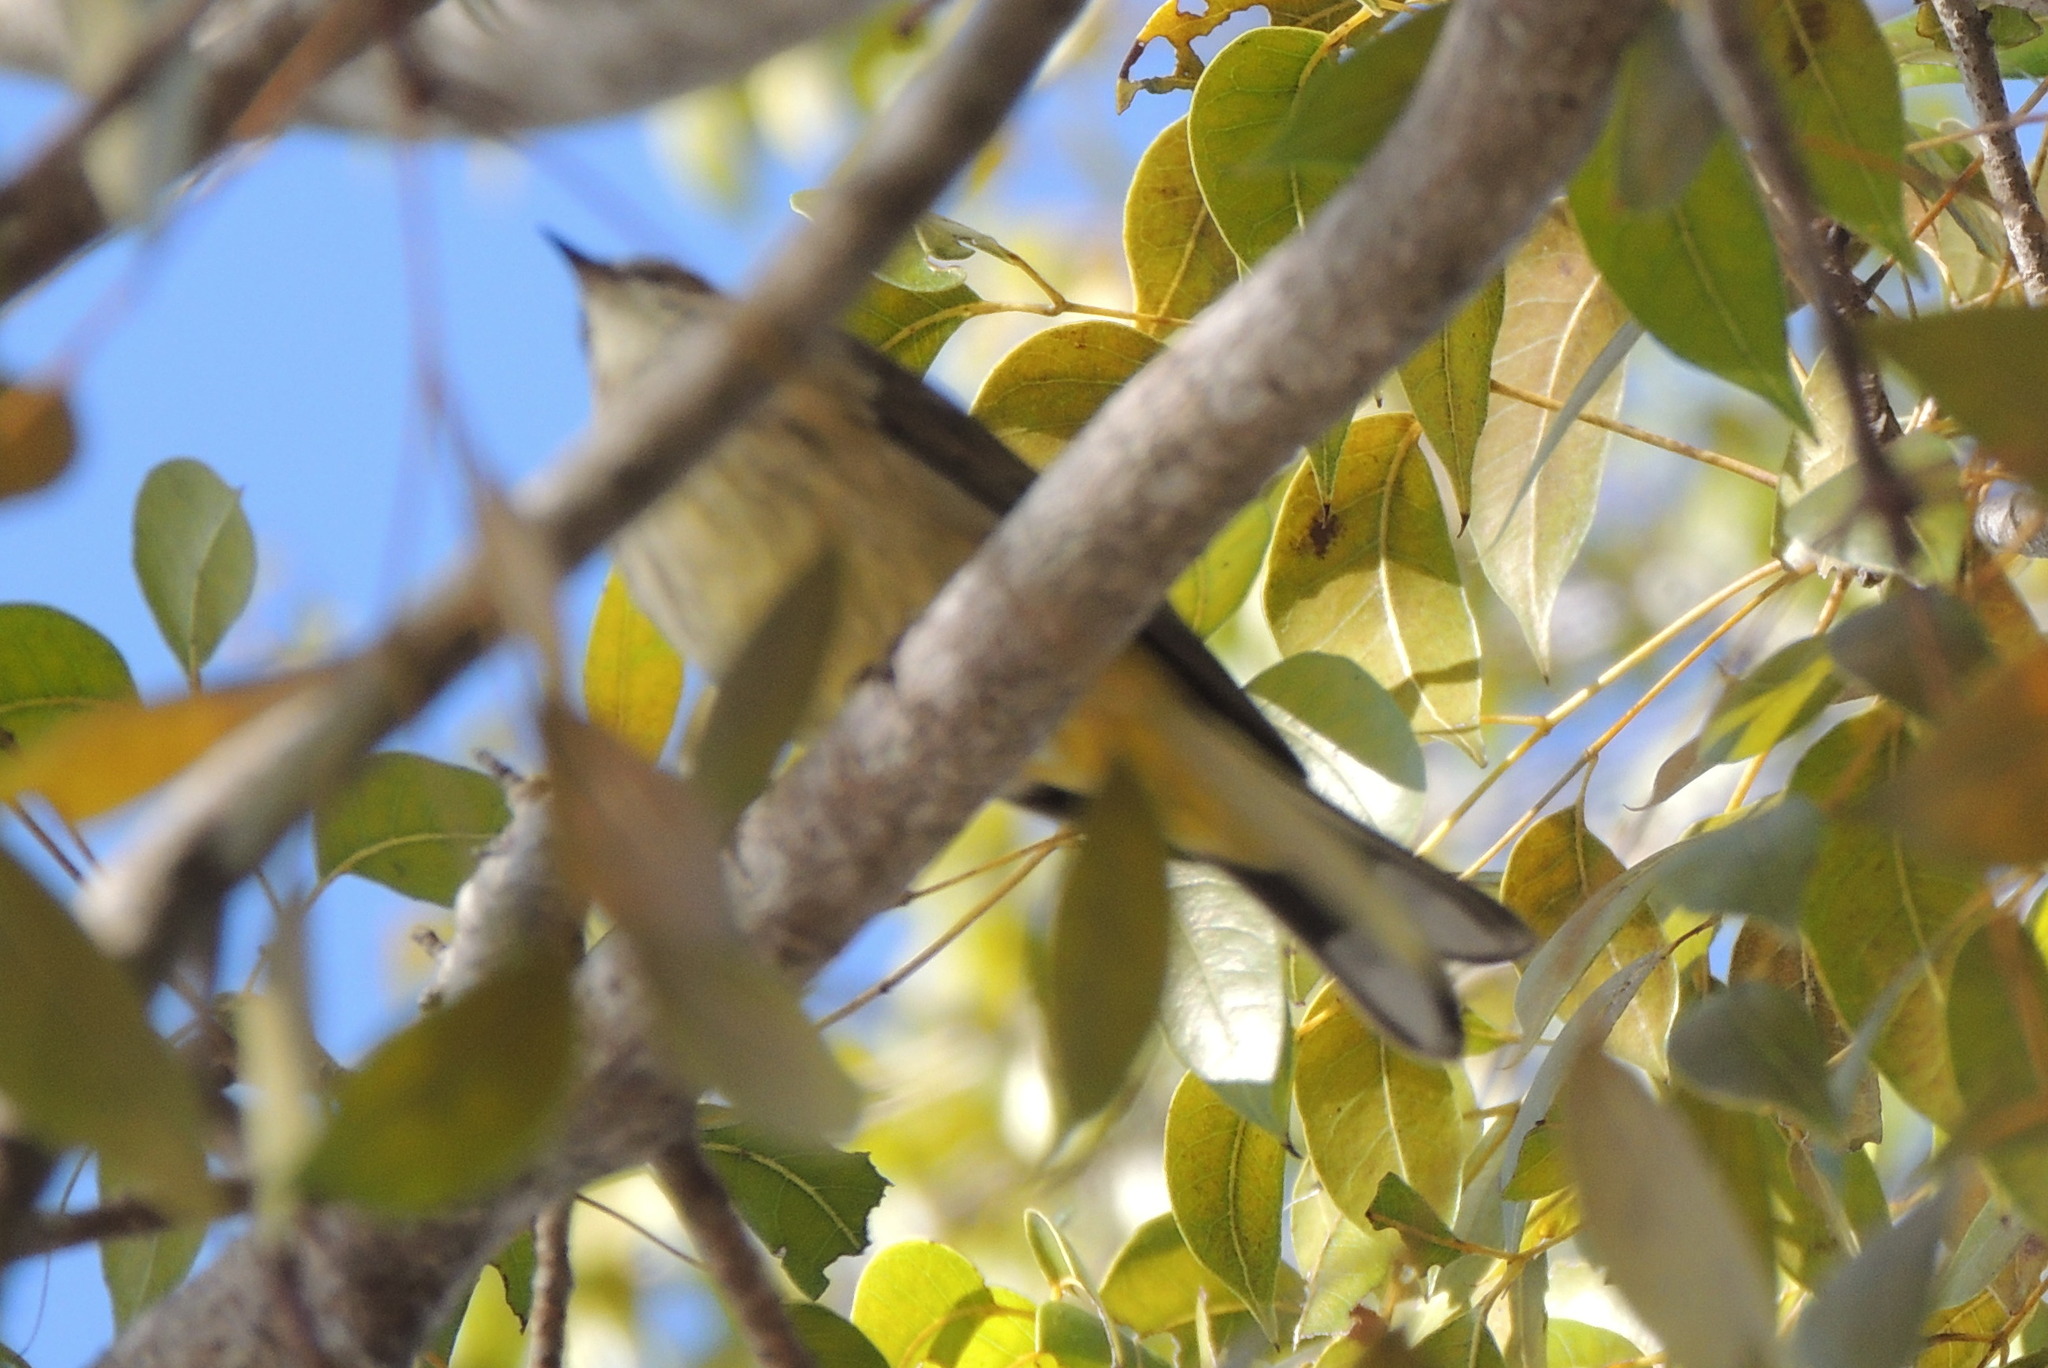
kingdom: Animalia
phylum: Chordata
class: Aves
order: Passeriformes
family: Parulidae
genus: Setophaga
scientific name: Setophaga palmarum
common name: Palm warbler
